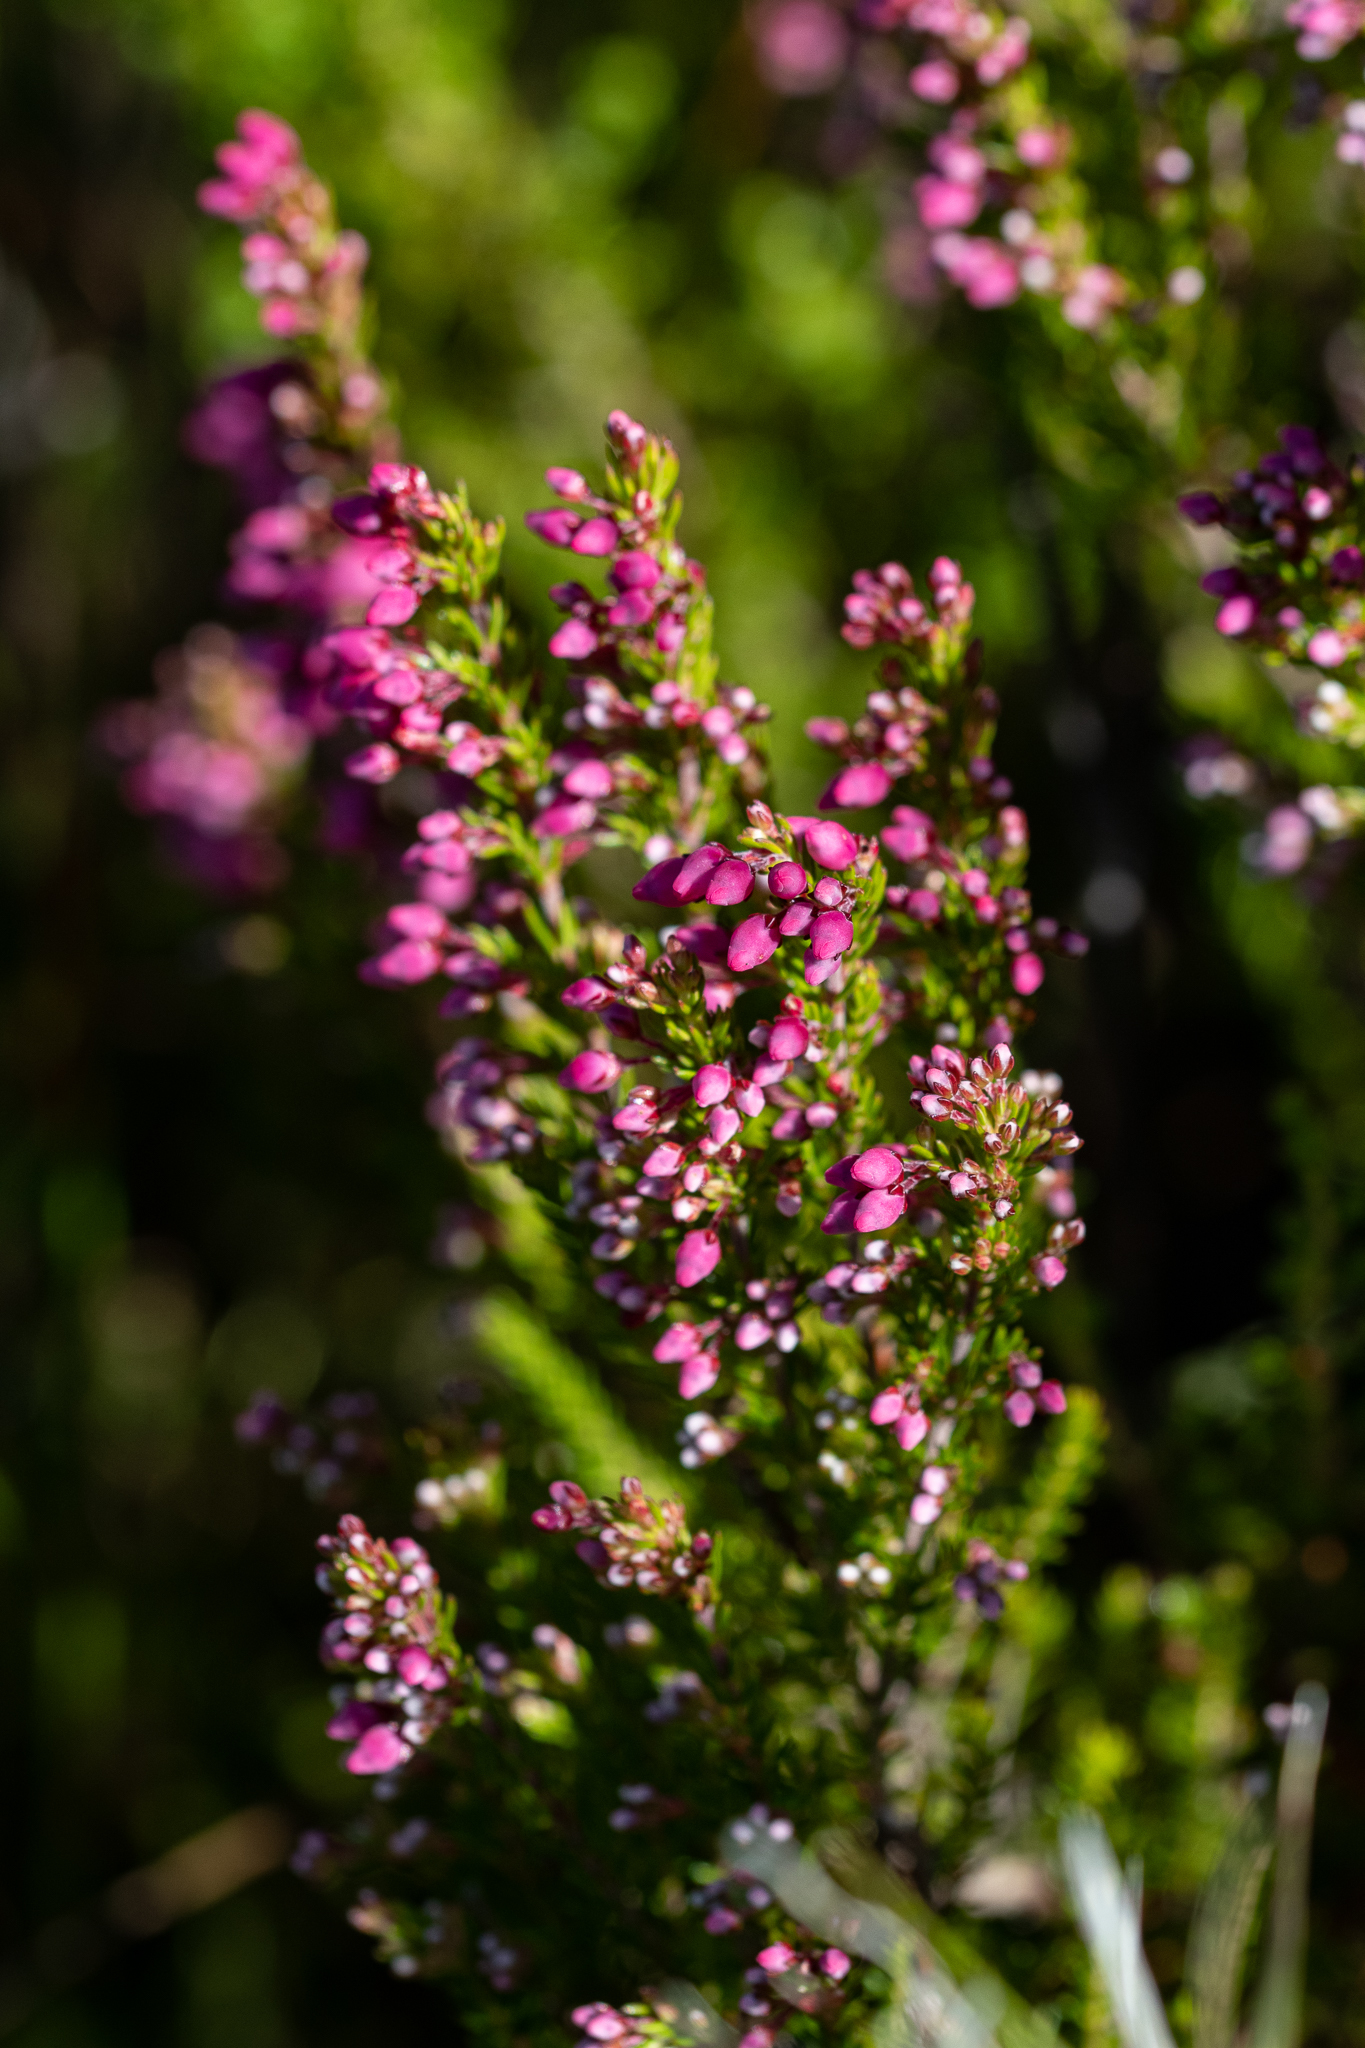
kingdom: Plantae
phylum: Tracheophyta
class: Magnoliopsida
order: Ericales
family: Ericaceae
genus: Erica
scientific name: Erica tenella
